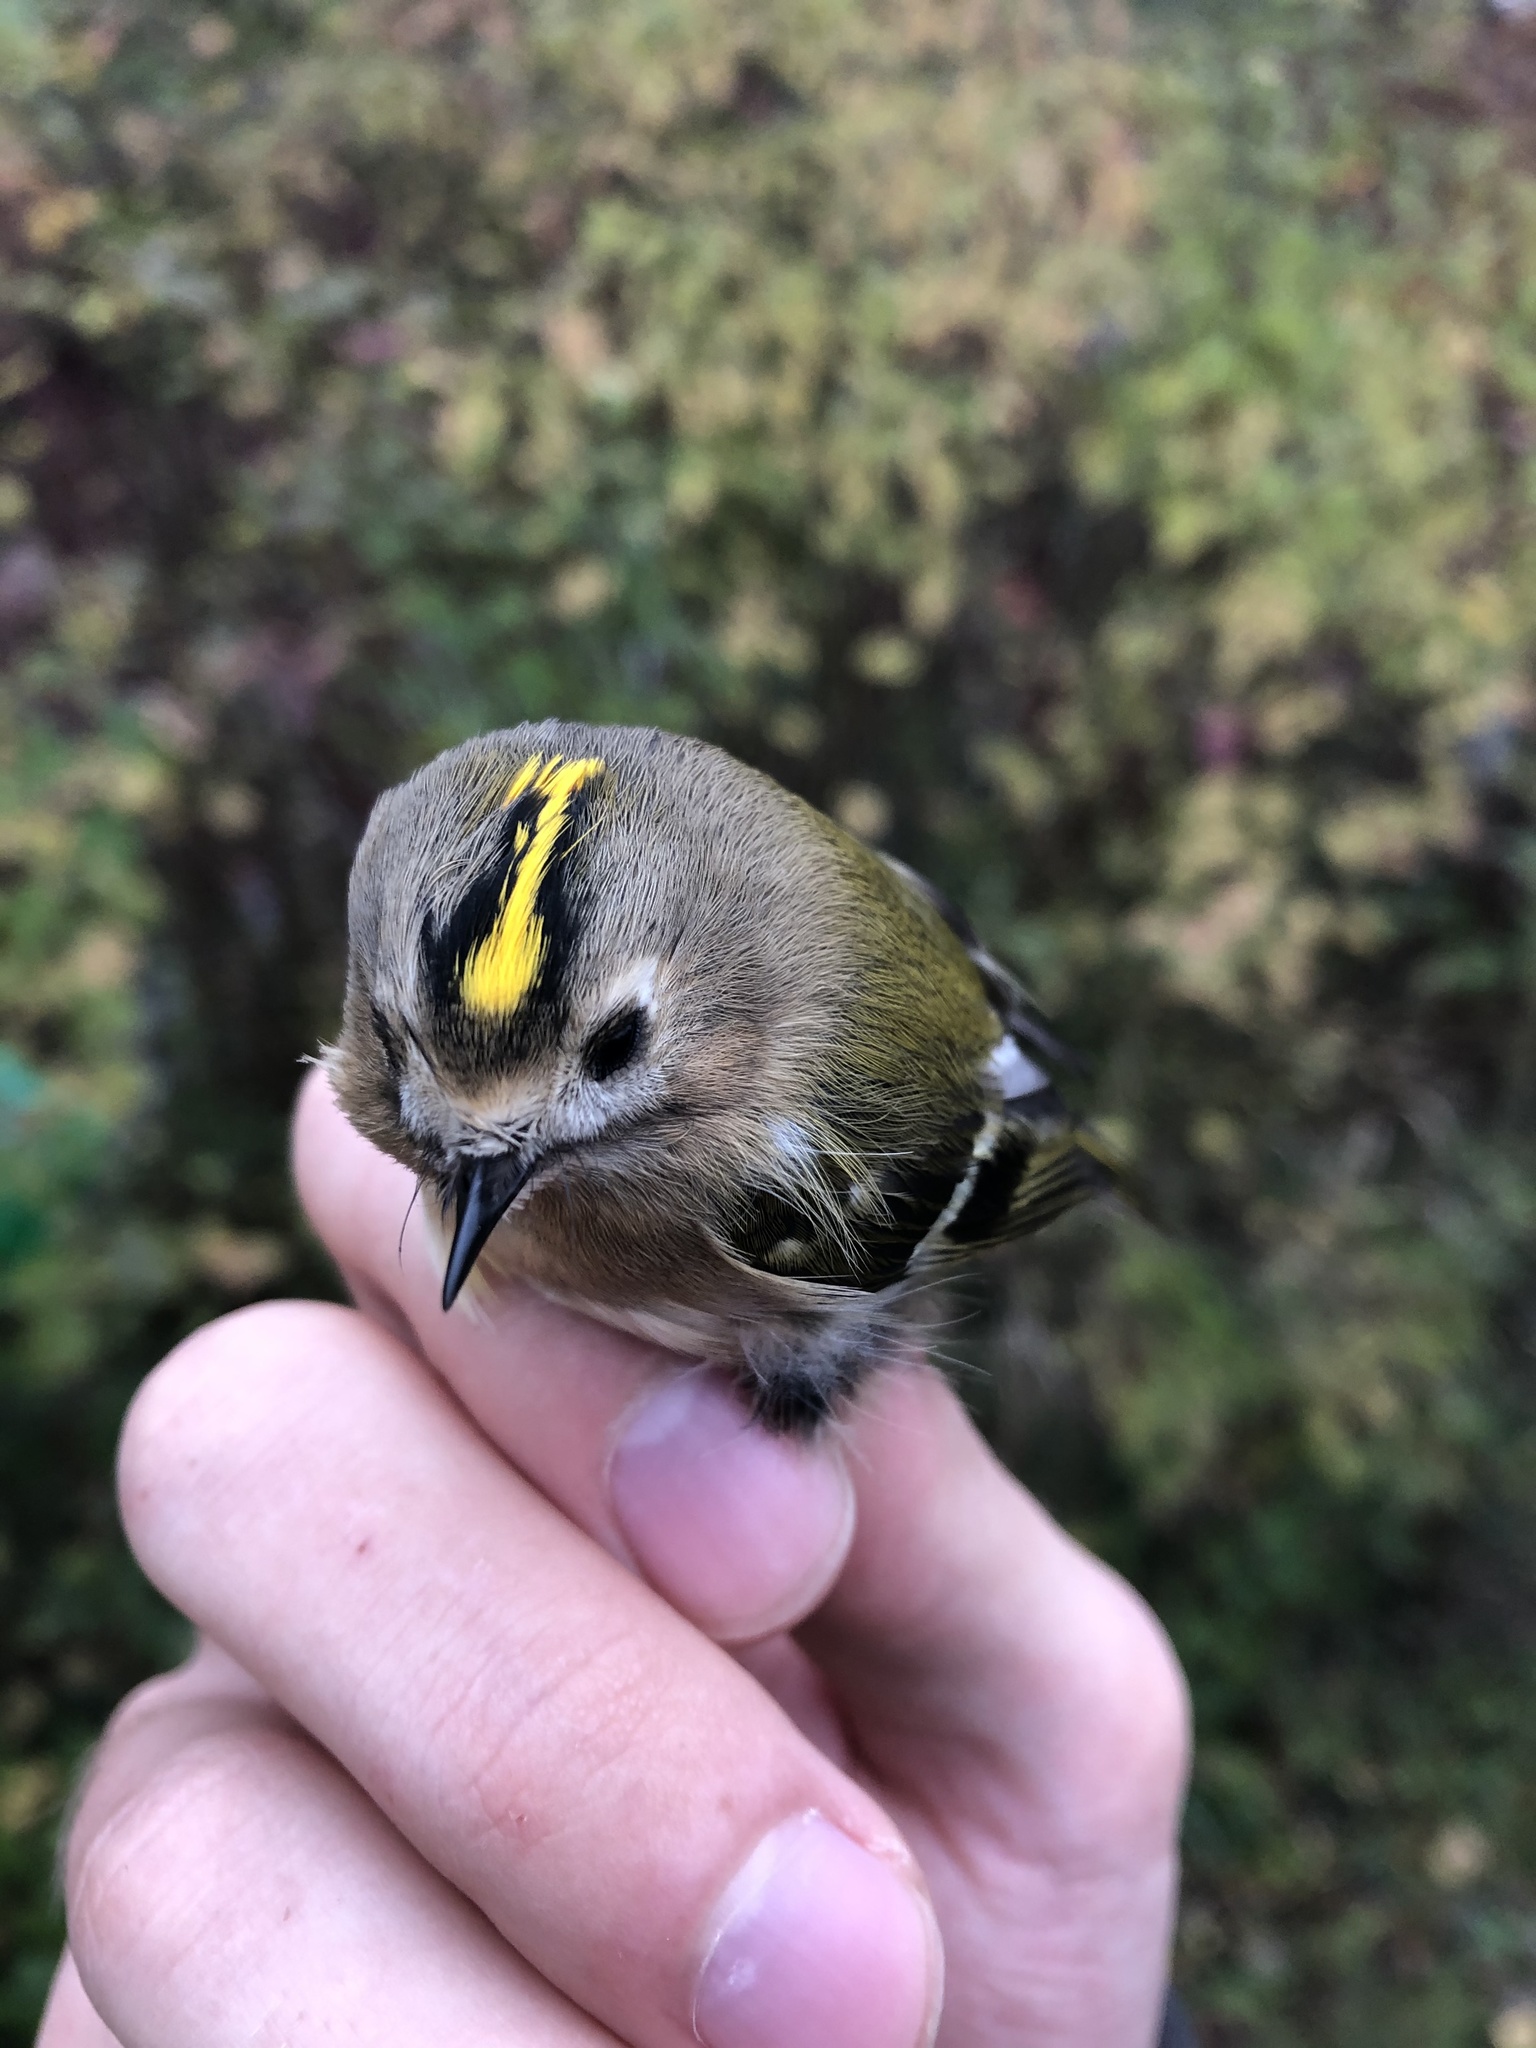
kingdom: Animalia
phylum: Chordata
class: Aves
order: Passeriformes
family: Regulidae
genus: Regulus
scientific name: Regulus regulus
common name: Goldcrest
